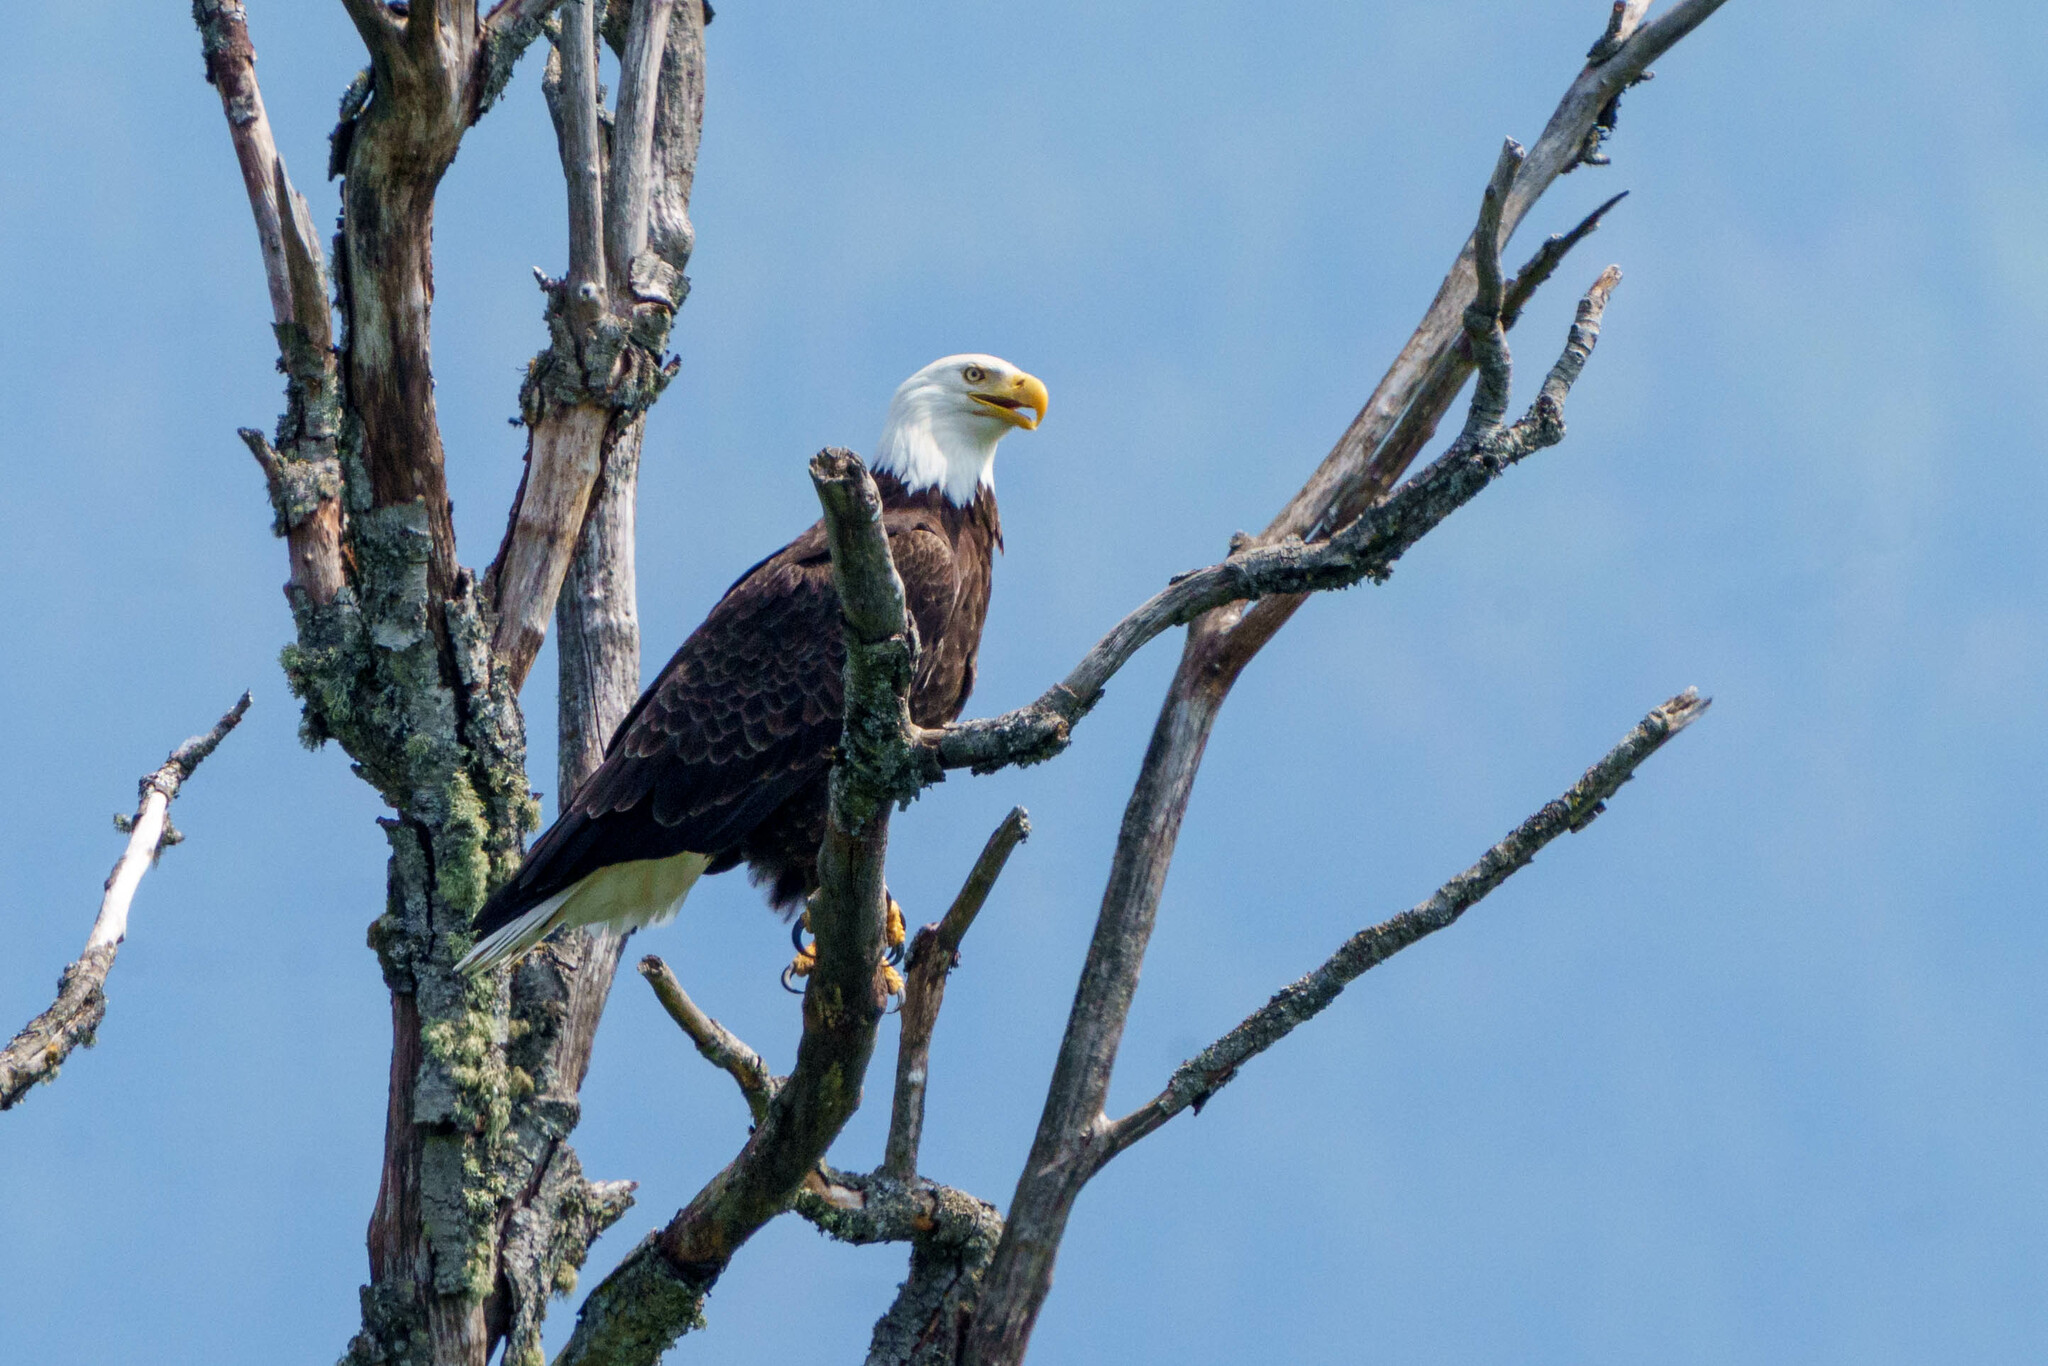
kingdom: Animalia
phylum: Chordata
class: Aves
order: Accipitriformes
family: Accipitridae
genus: Haliaeetus
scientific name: Haliaeetus leucocephalus
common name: Bald eagle
